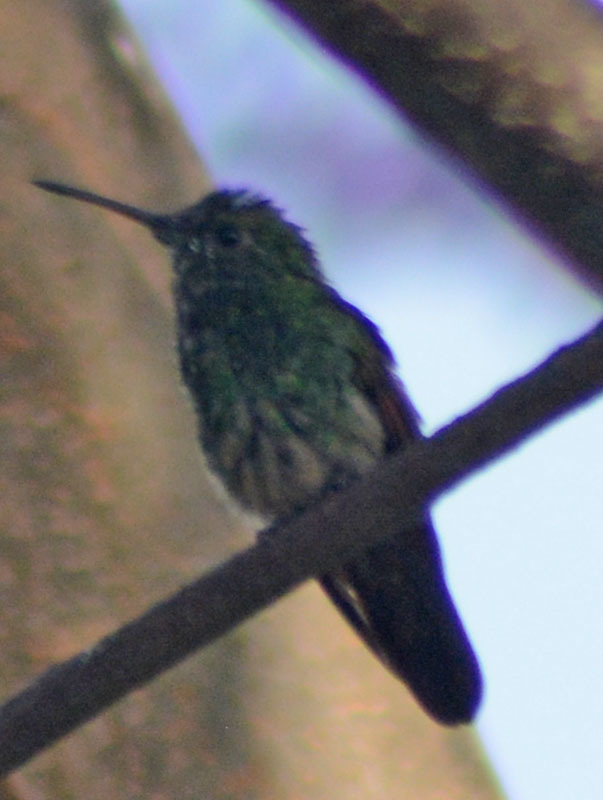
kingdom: Animalia
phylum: Chordata
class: Aves
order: Apodiformes
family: Trochilidae
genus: Saucerottia
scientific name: Saucerottia beryllina
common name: Berylline hummingbird
